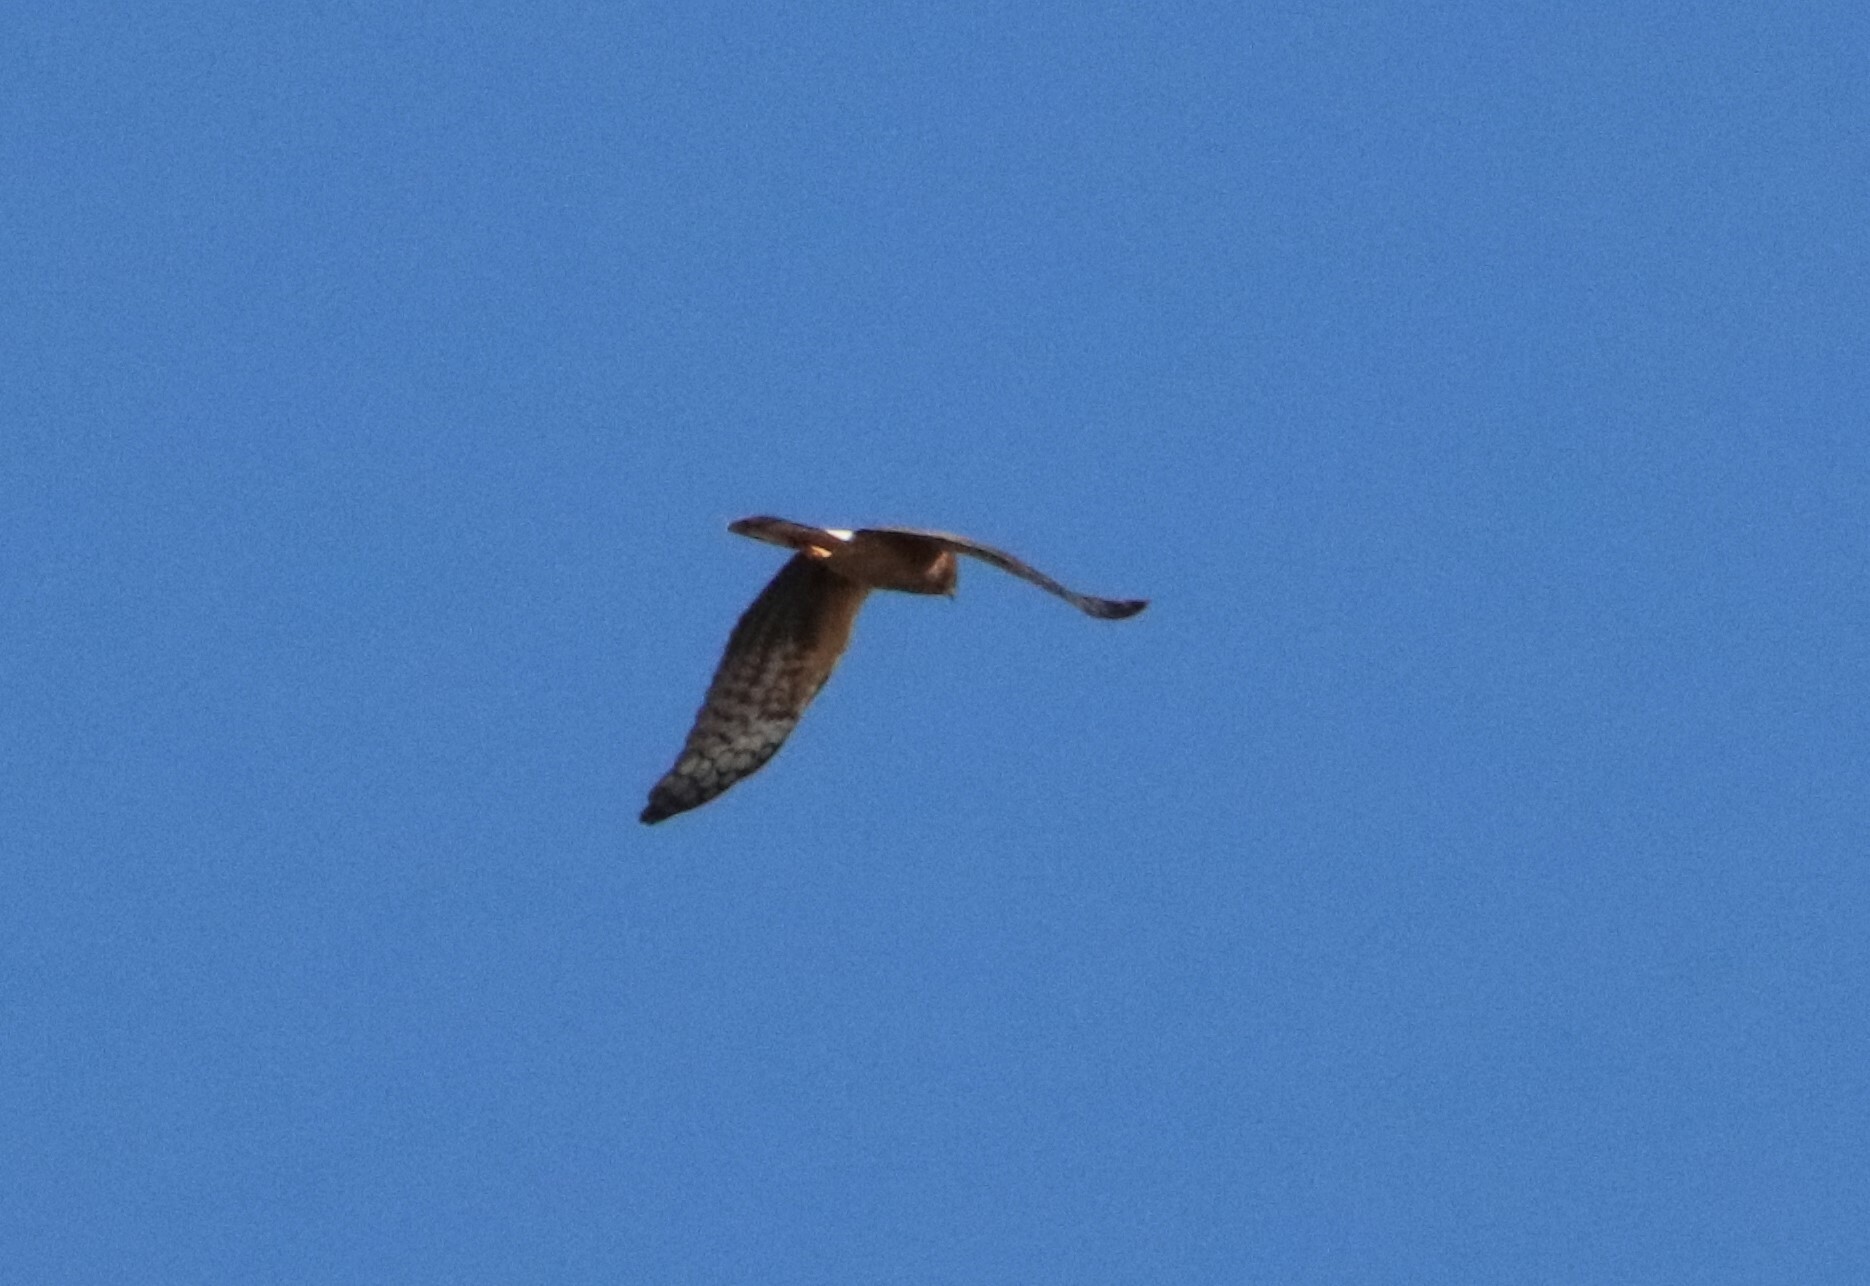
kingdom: Animalia
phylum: Chordata
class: Aves
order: Accipitriformes
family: Accipitridae
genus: Circus
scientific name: Circus cyaneus
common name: Hen harrier
